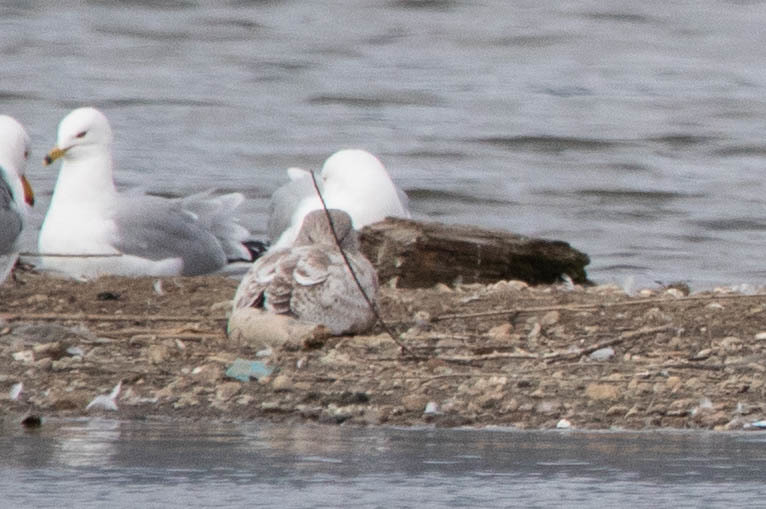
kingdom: Animalia
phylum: Chordata
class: Aves
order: Charadriiformes
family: Laridae
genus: Larus
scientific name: Larus glaucoides
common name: Iceland gull
